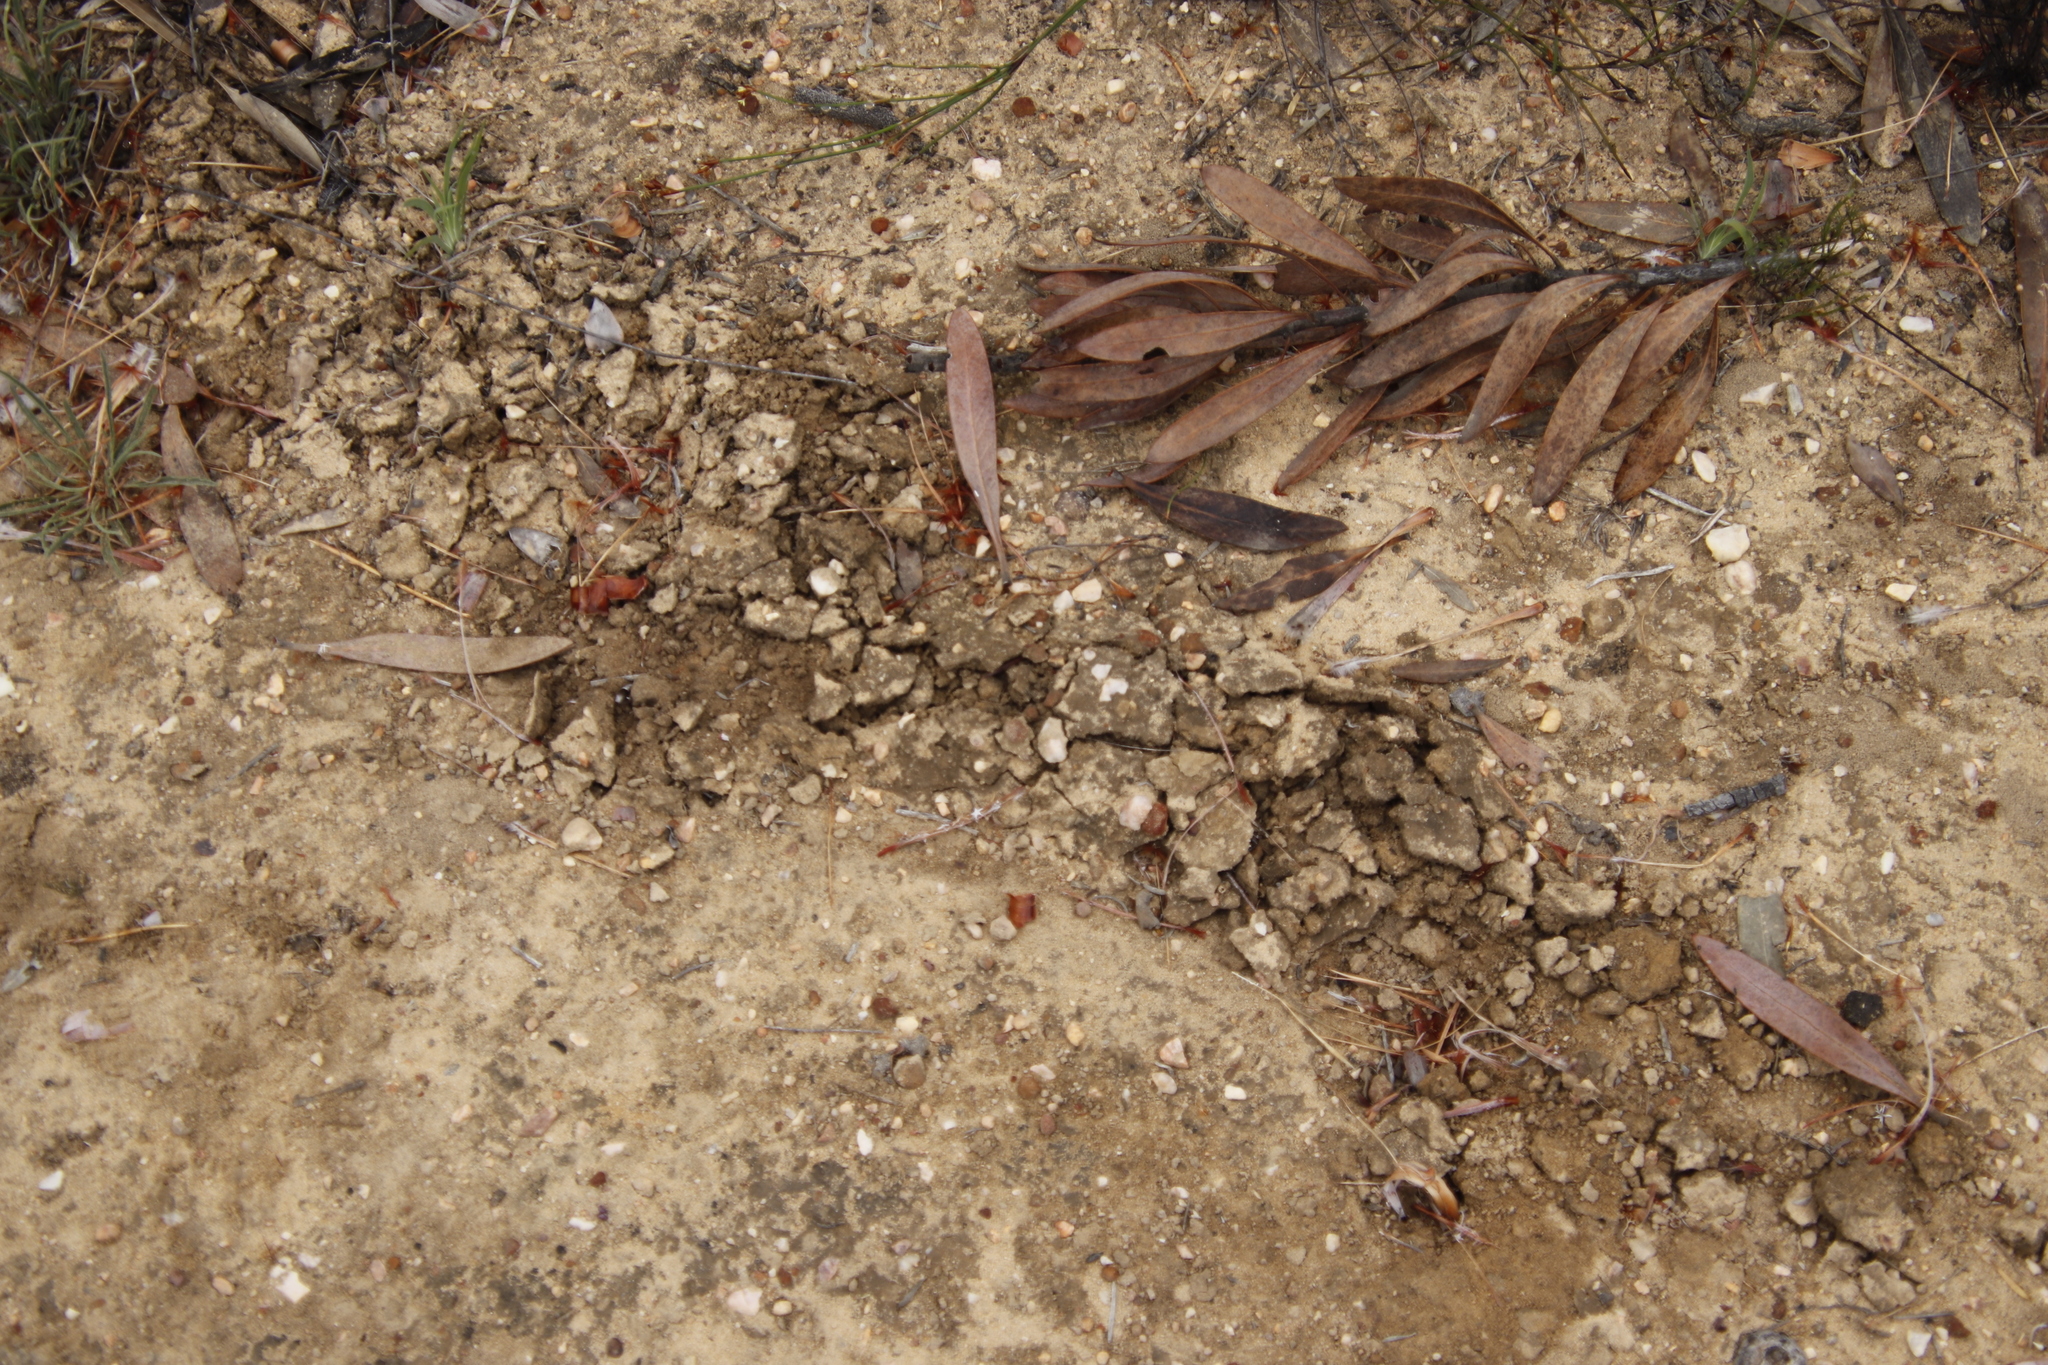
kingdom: Animalia
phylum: Chordata
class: Mammalia
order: Afrosoricida
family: Chrysochloridae
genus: Chrysochloris
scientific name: Chrysochloris asiatica
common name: Cape golden mole
